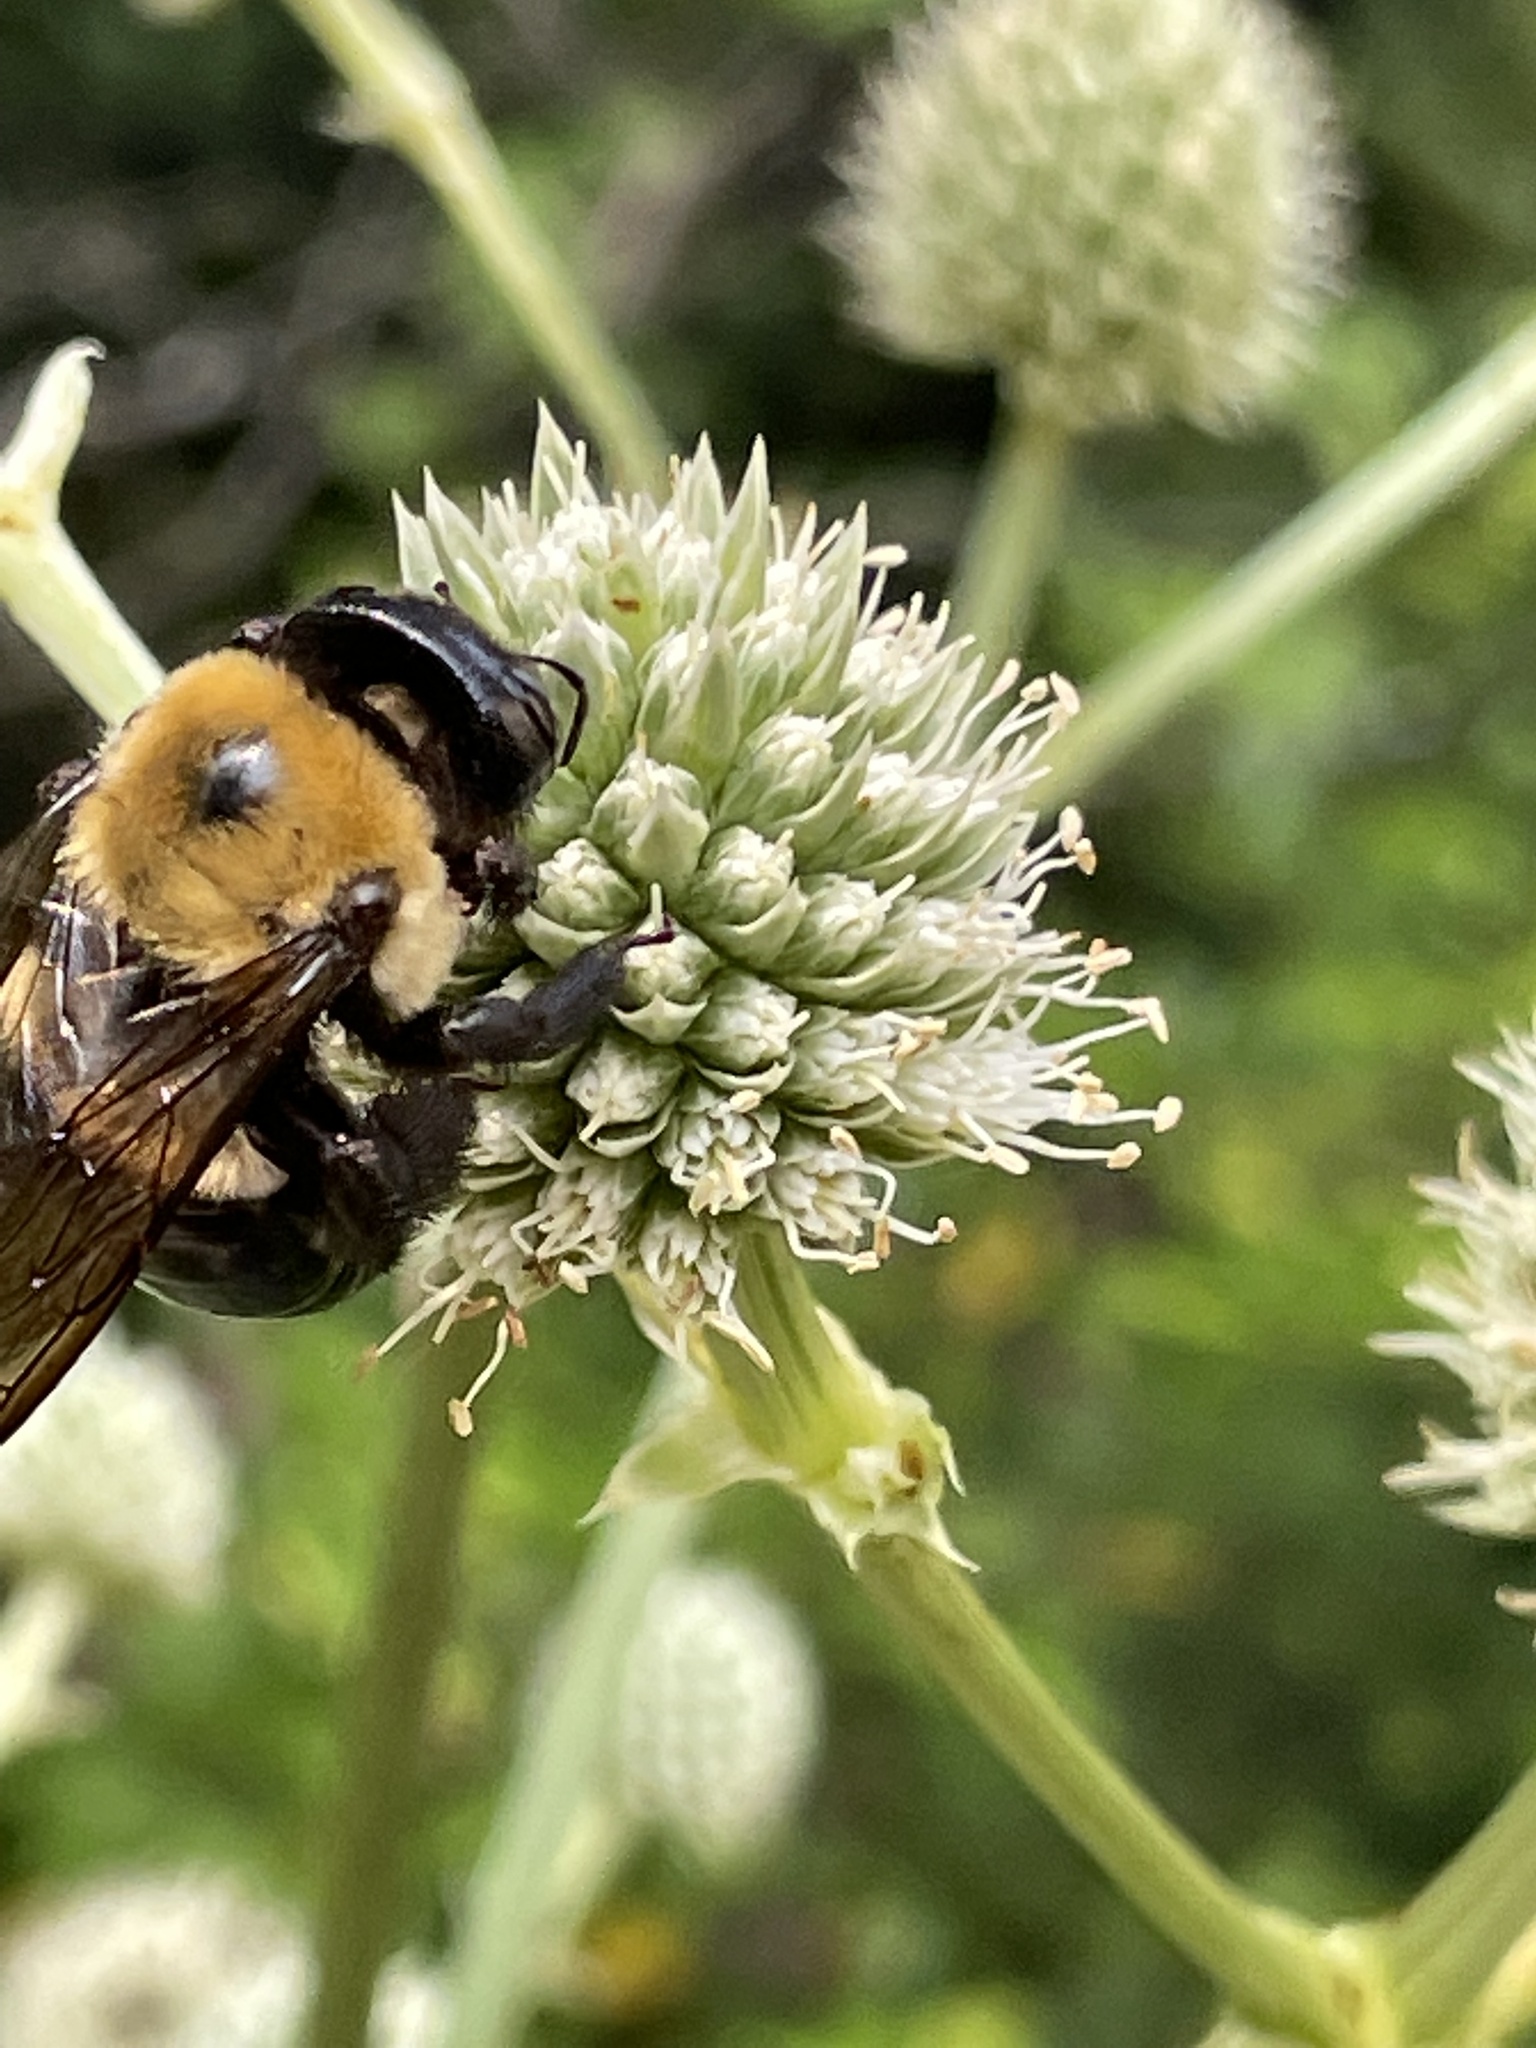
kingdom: Animalia
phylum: Arthropoda
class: Insecta
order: Hymenoptera
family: Apidae
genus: Xylocopa
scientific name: Xylocopa virginica
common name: Carpenter bee
